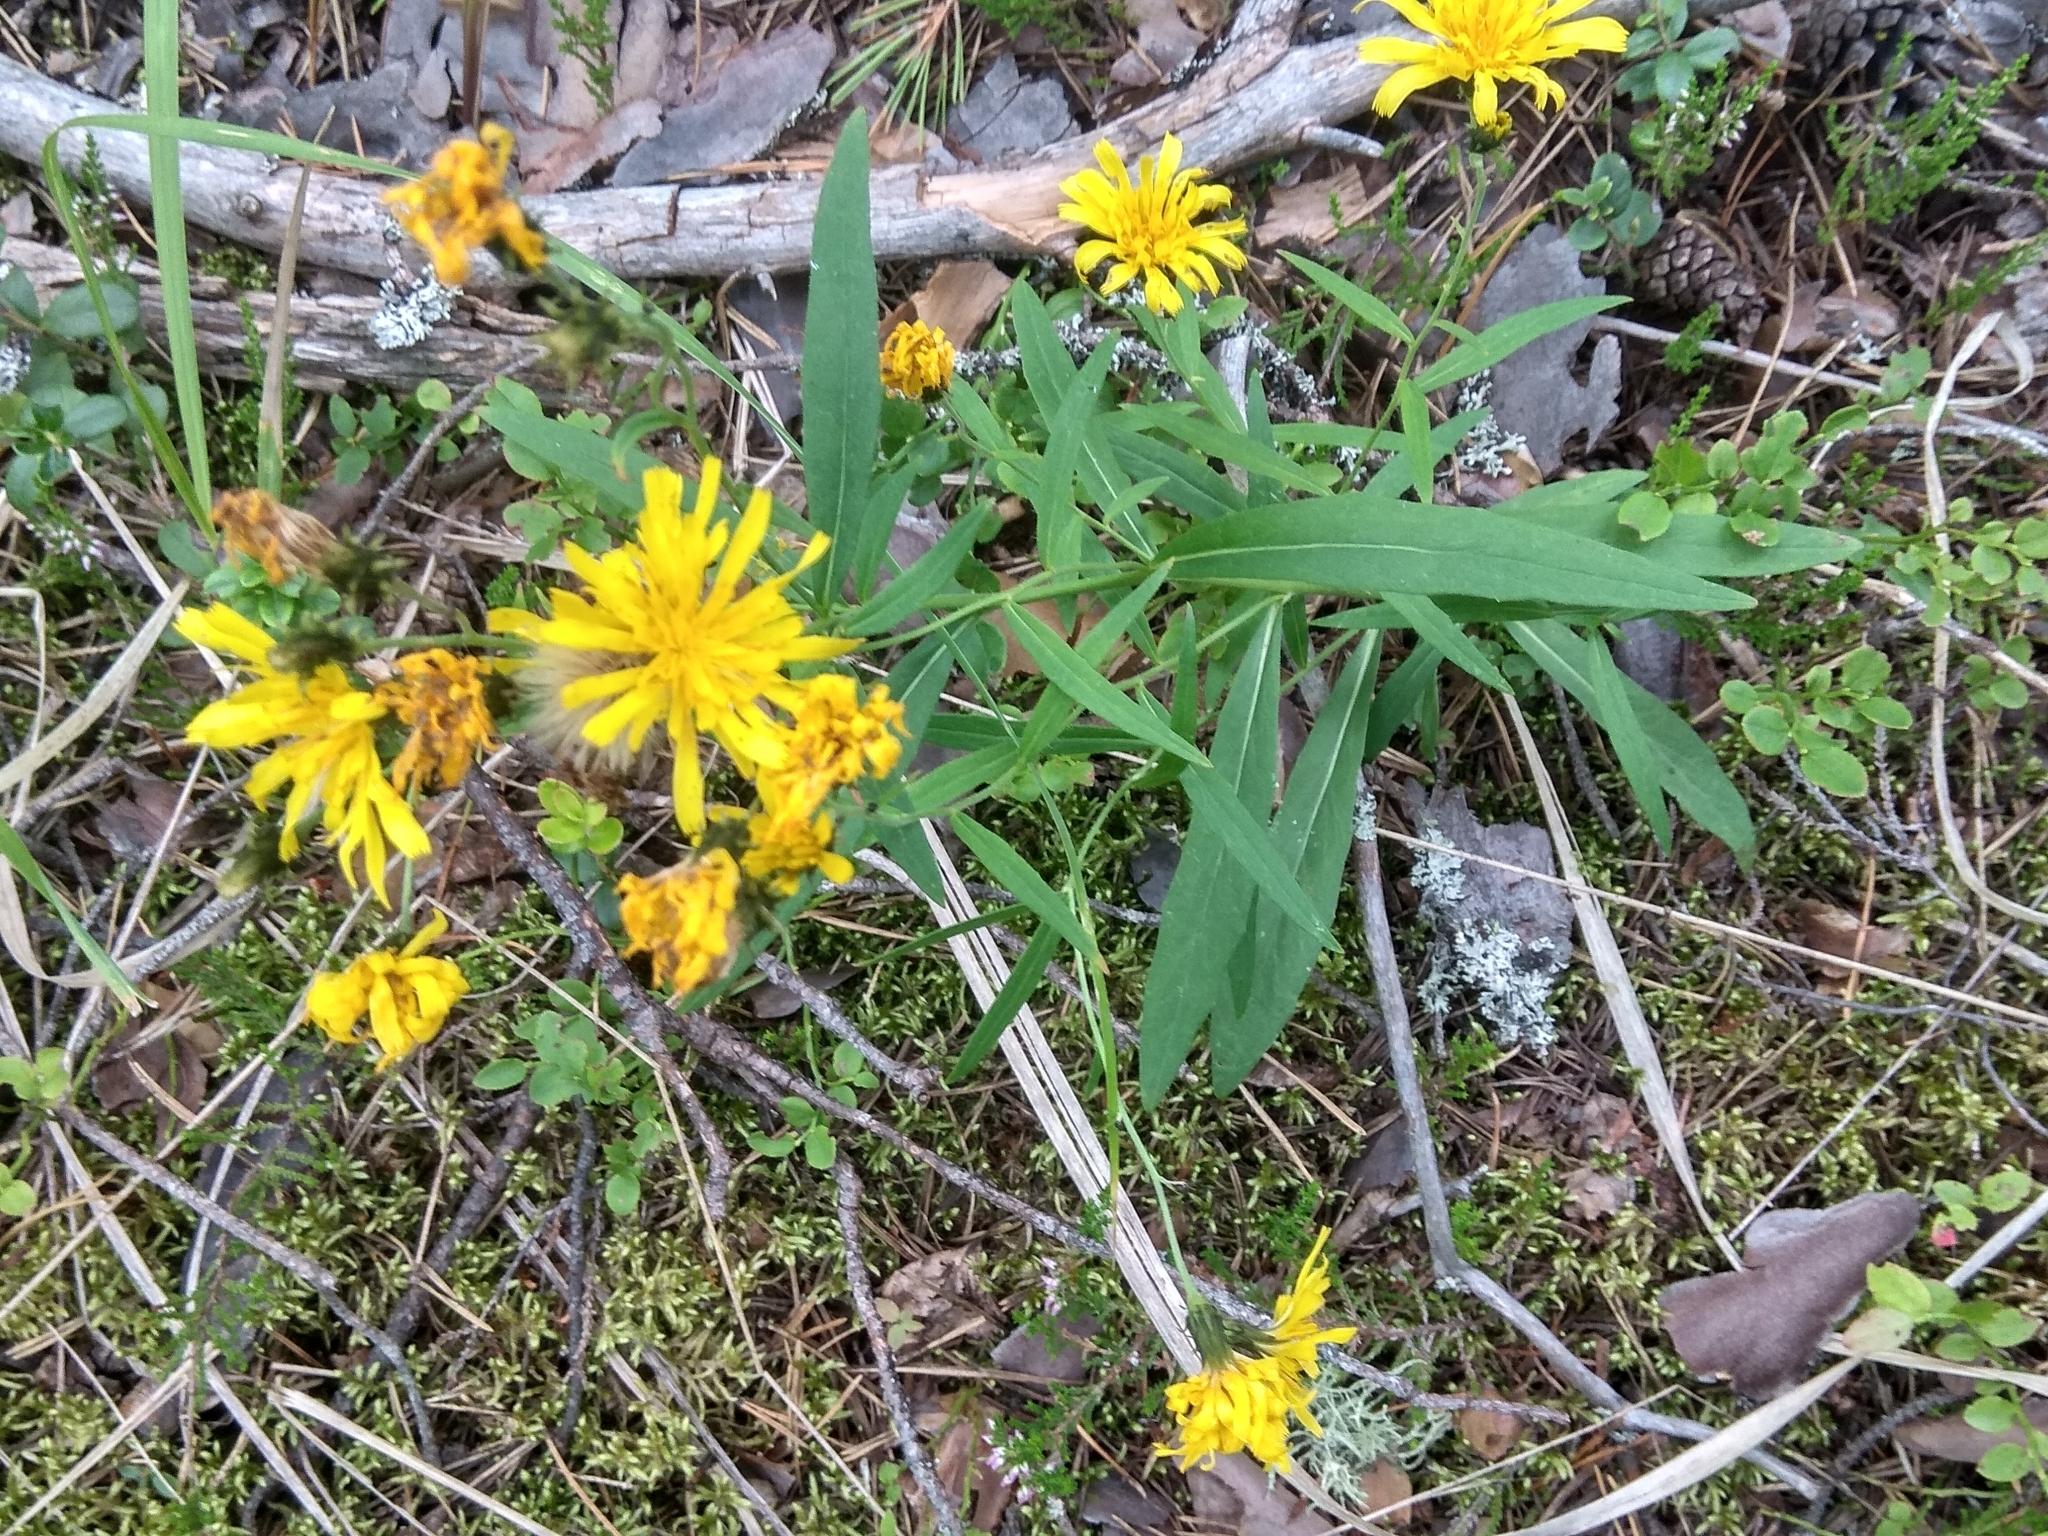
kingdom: Plantae
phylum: Tracheophyta
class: Magnoliopsida
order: Asterales
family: Asteraceae
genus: Hieracium
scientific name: Hieracium umbellatum
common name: Northern hawkweed
